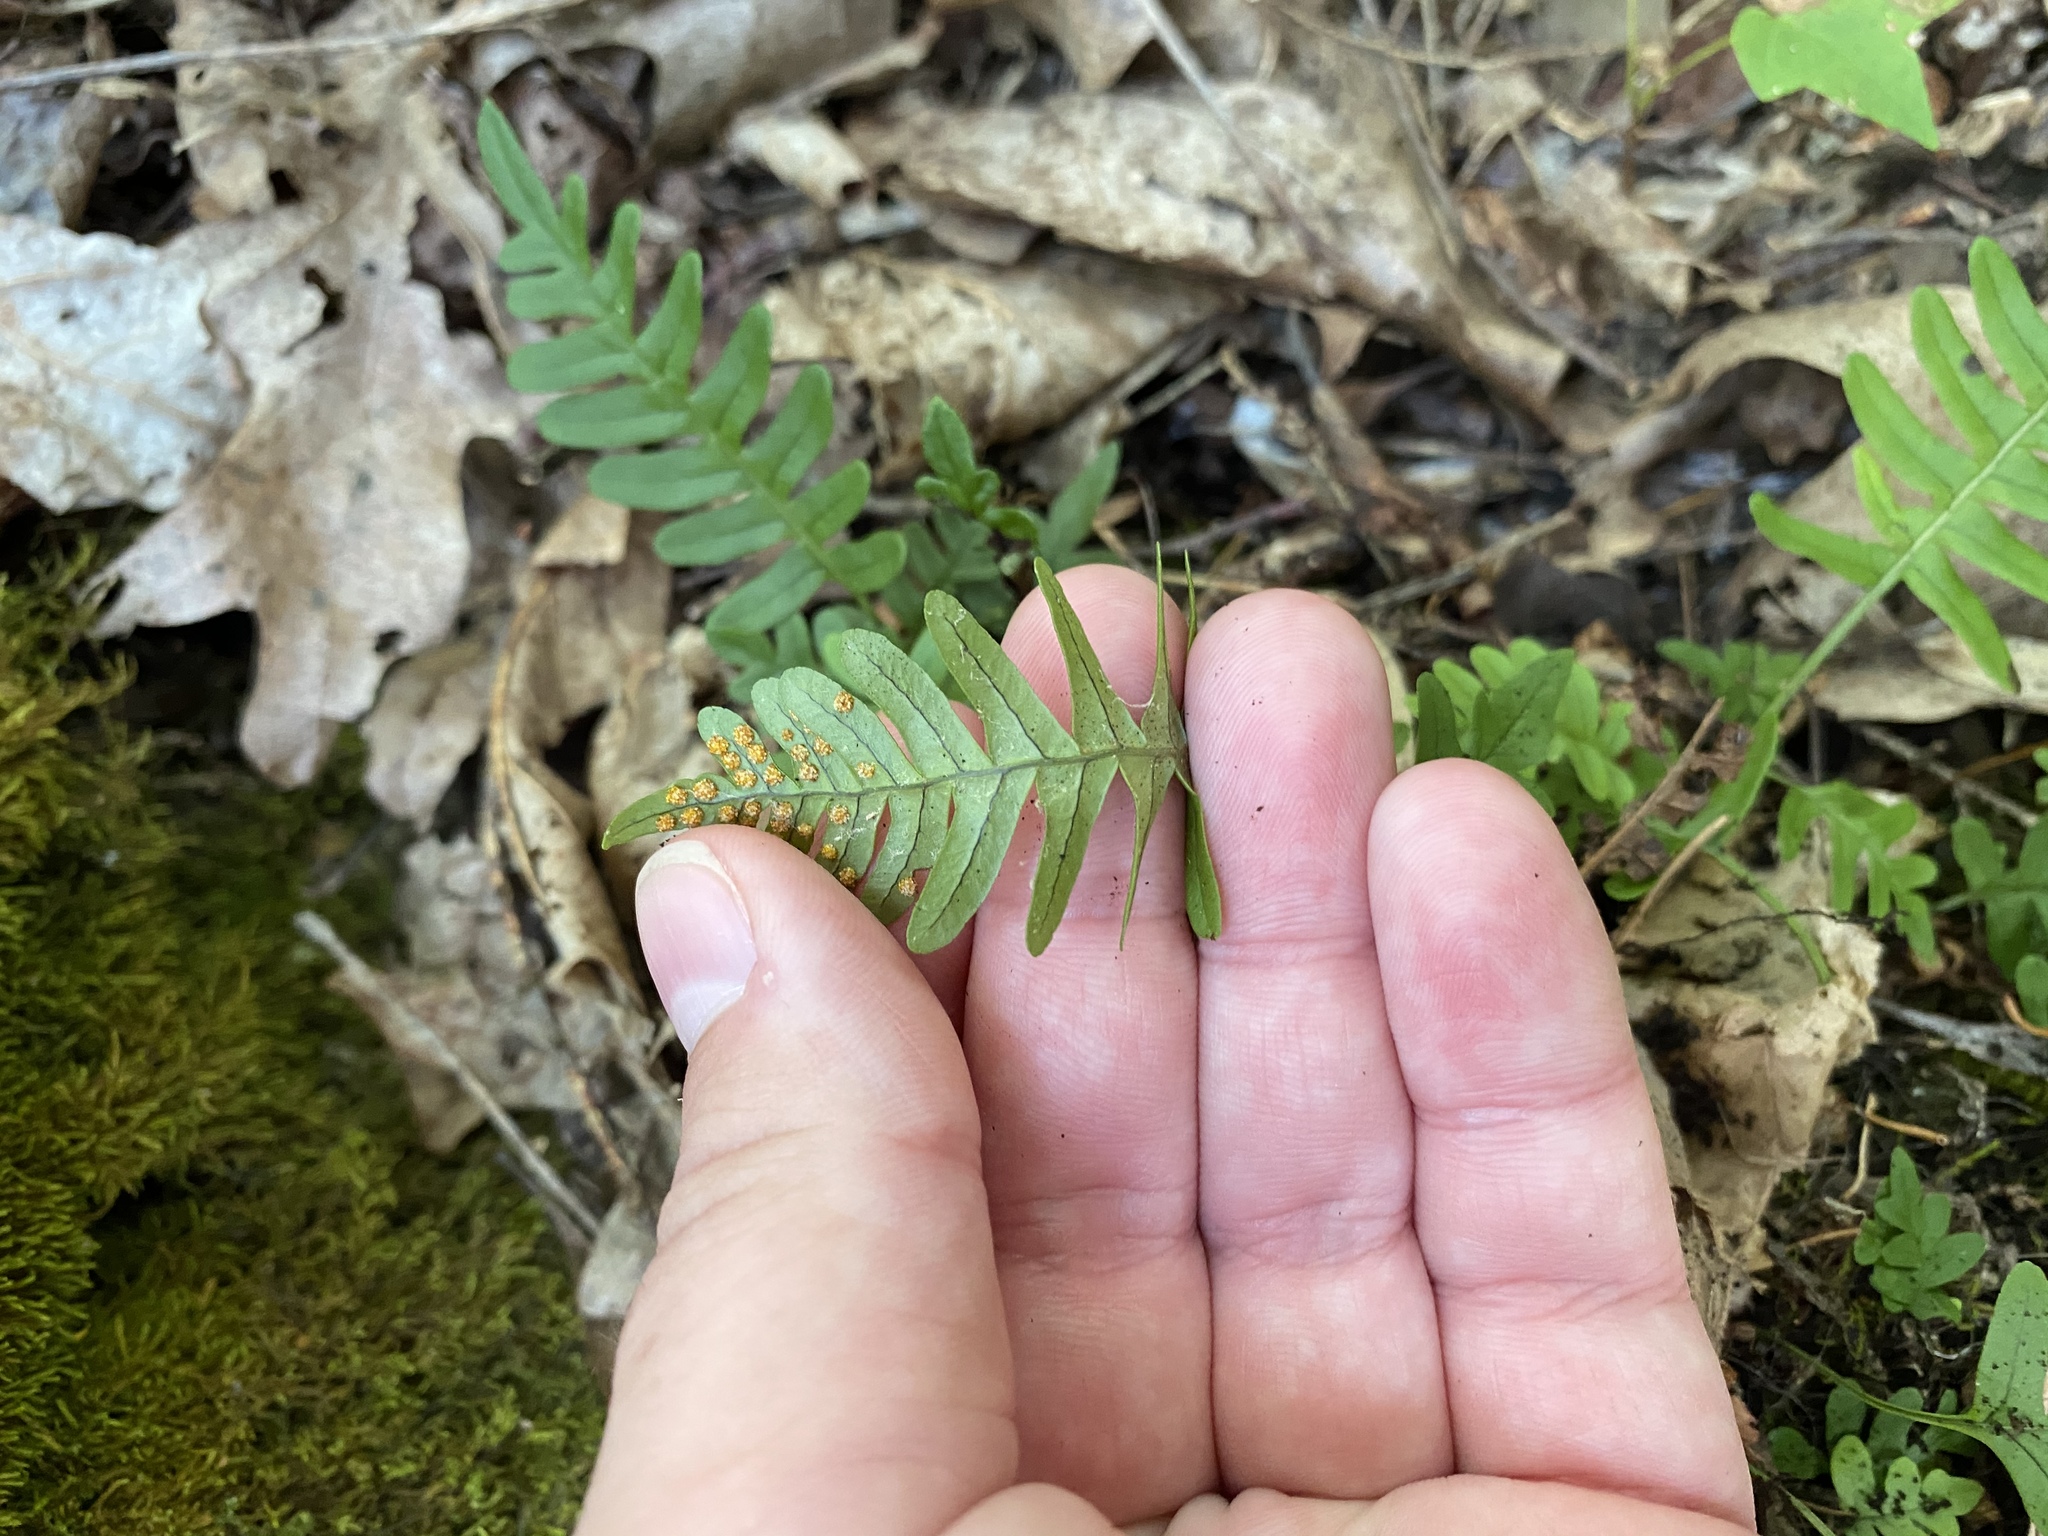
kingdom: Plantae
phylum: Tracheophyta
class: Polypodiopsida
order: Polypodiales
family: Polypodiaceae
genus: Polypodium
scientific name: Polypodium virginianum
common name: American wall fern
